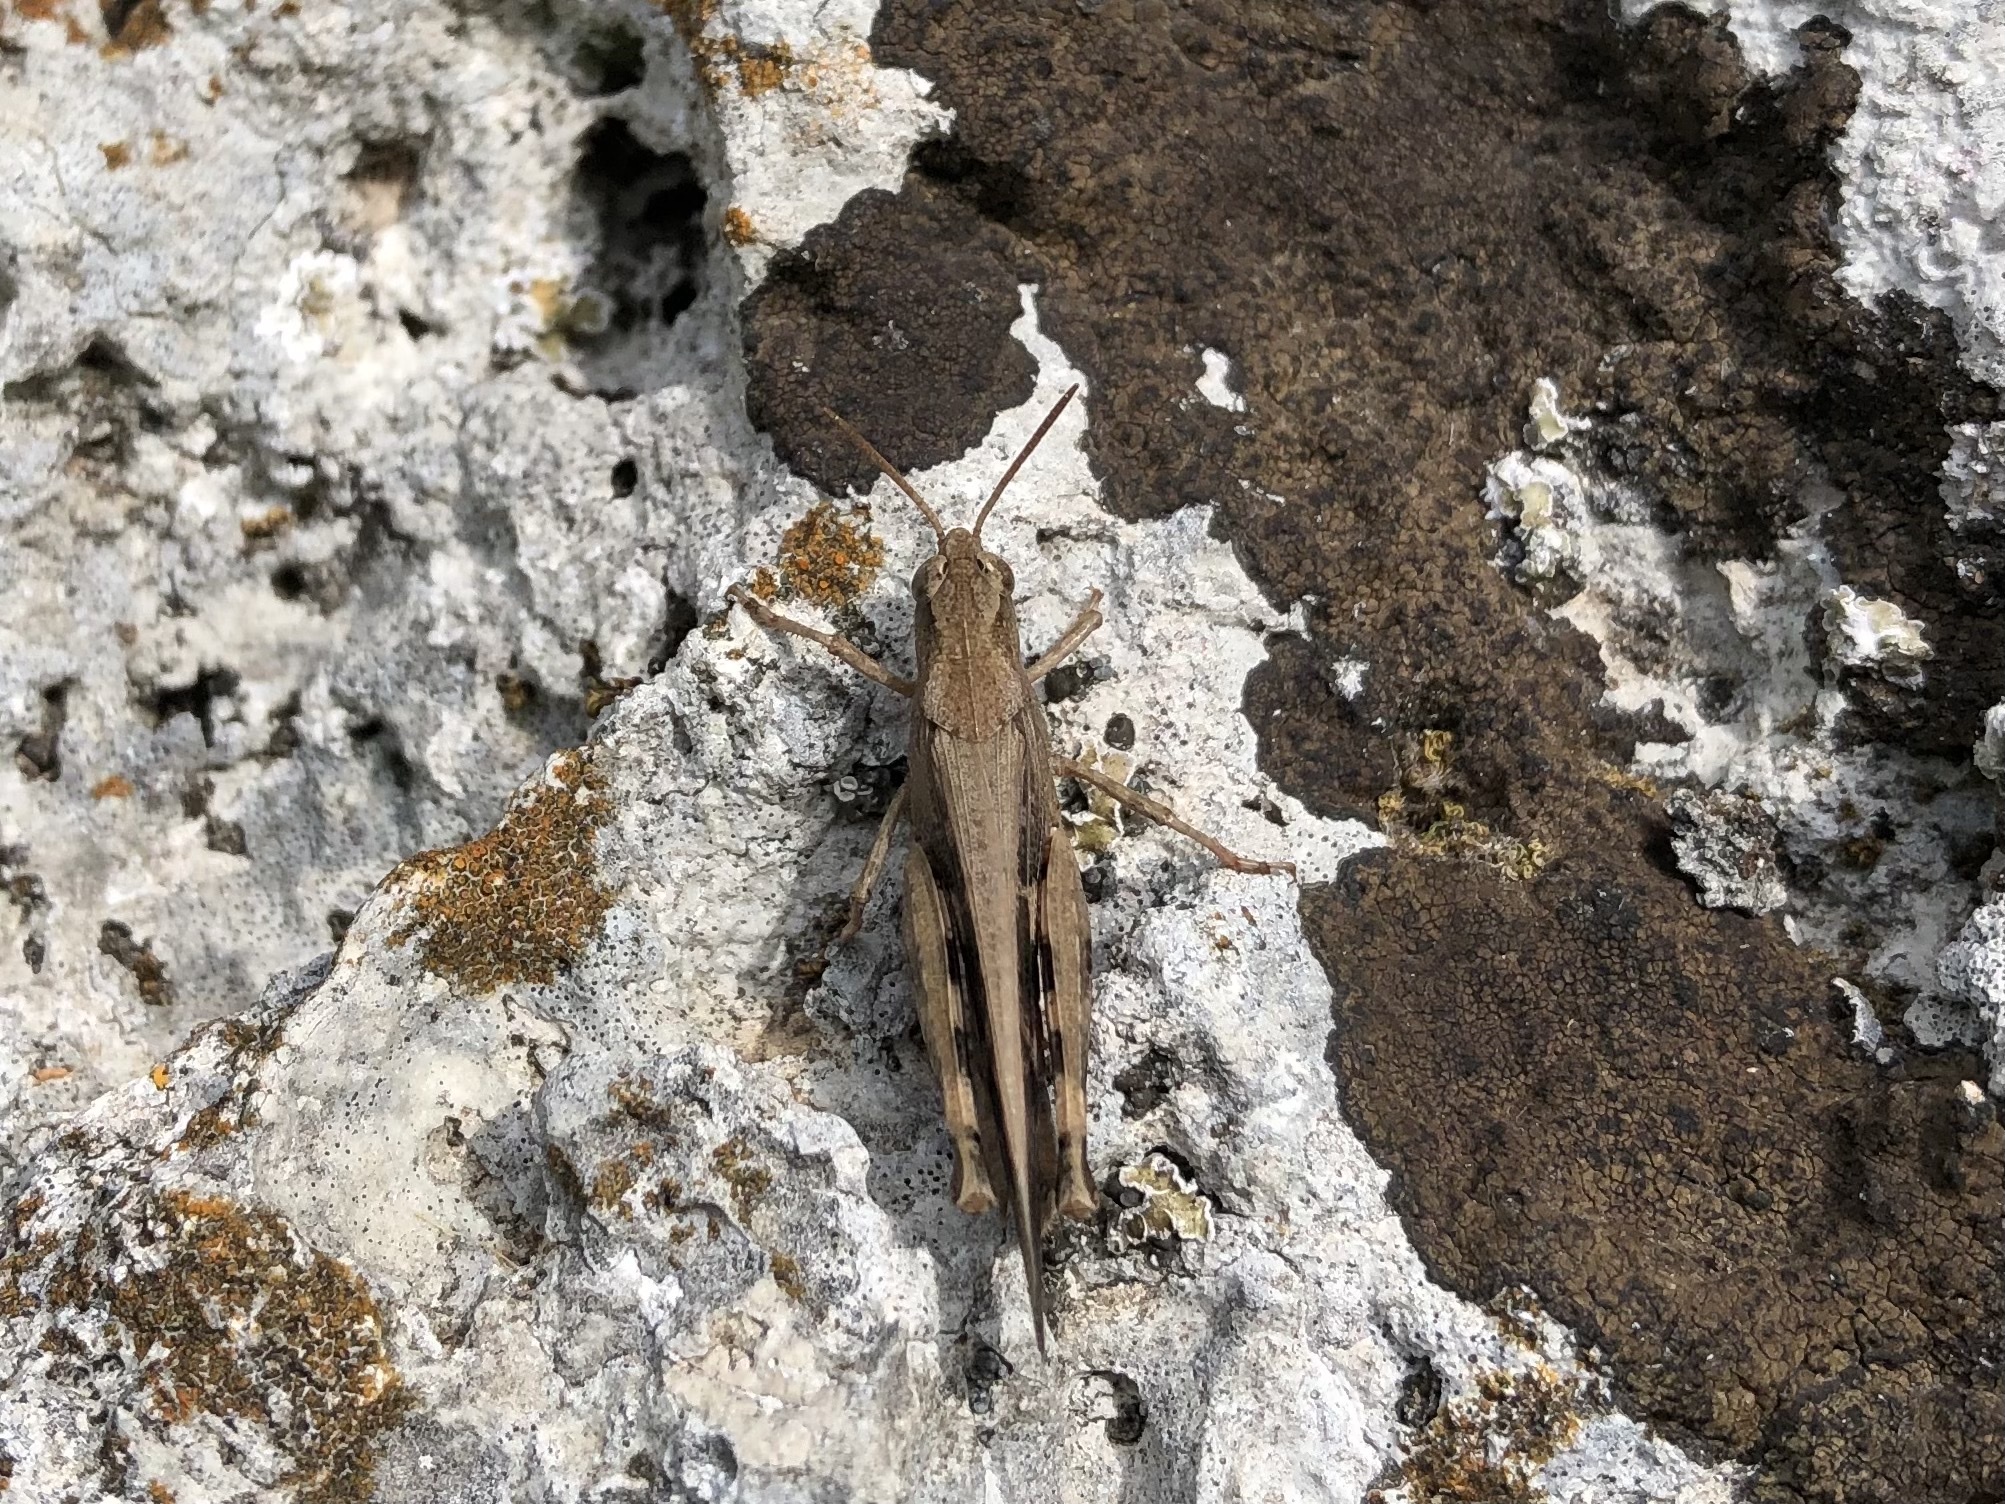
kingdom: Animalia
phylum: Arthropoda
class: Insecta
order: Orthoptera
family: Acrididae
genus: Aiolopus
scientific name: Aiolopus strepens
